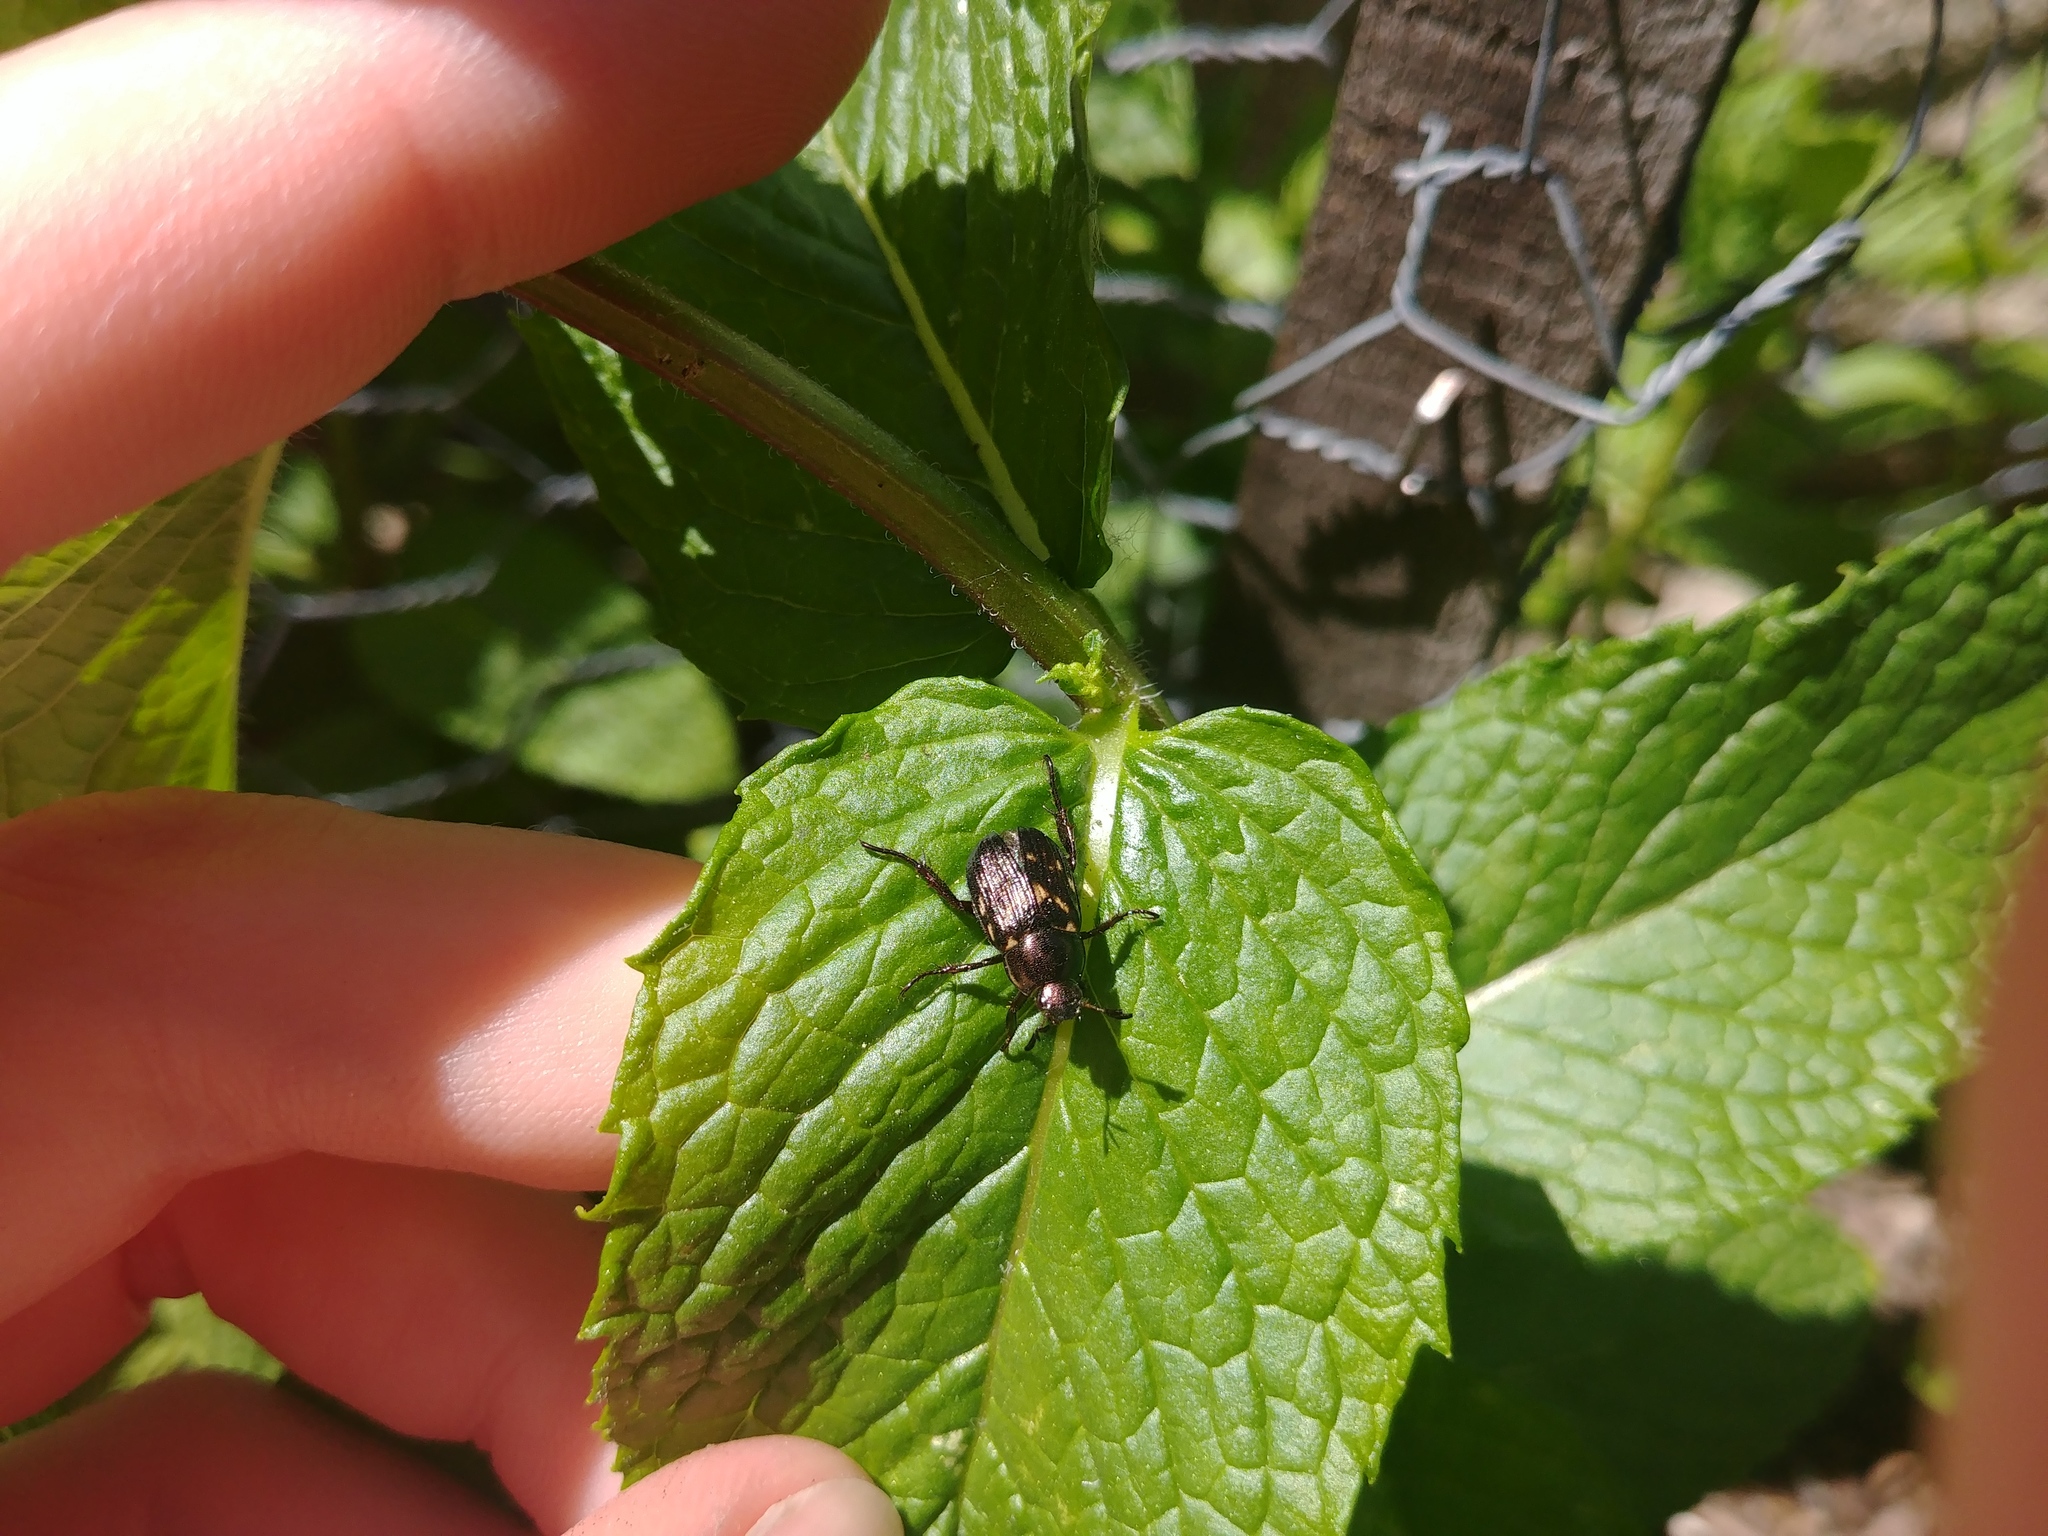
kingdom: Animalia
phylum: Arthropoda
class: Insecta
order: Coleoptera
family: Scarabaeidae
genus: Exomala
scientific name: Exomala orientalis
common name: Oriental beetle
